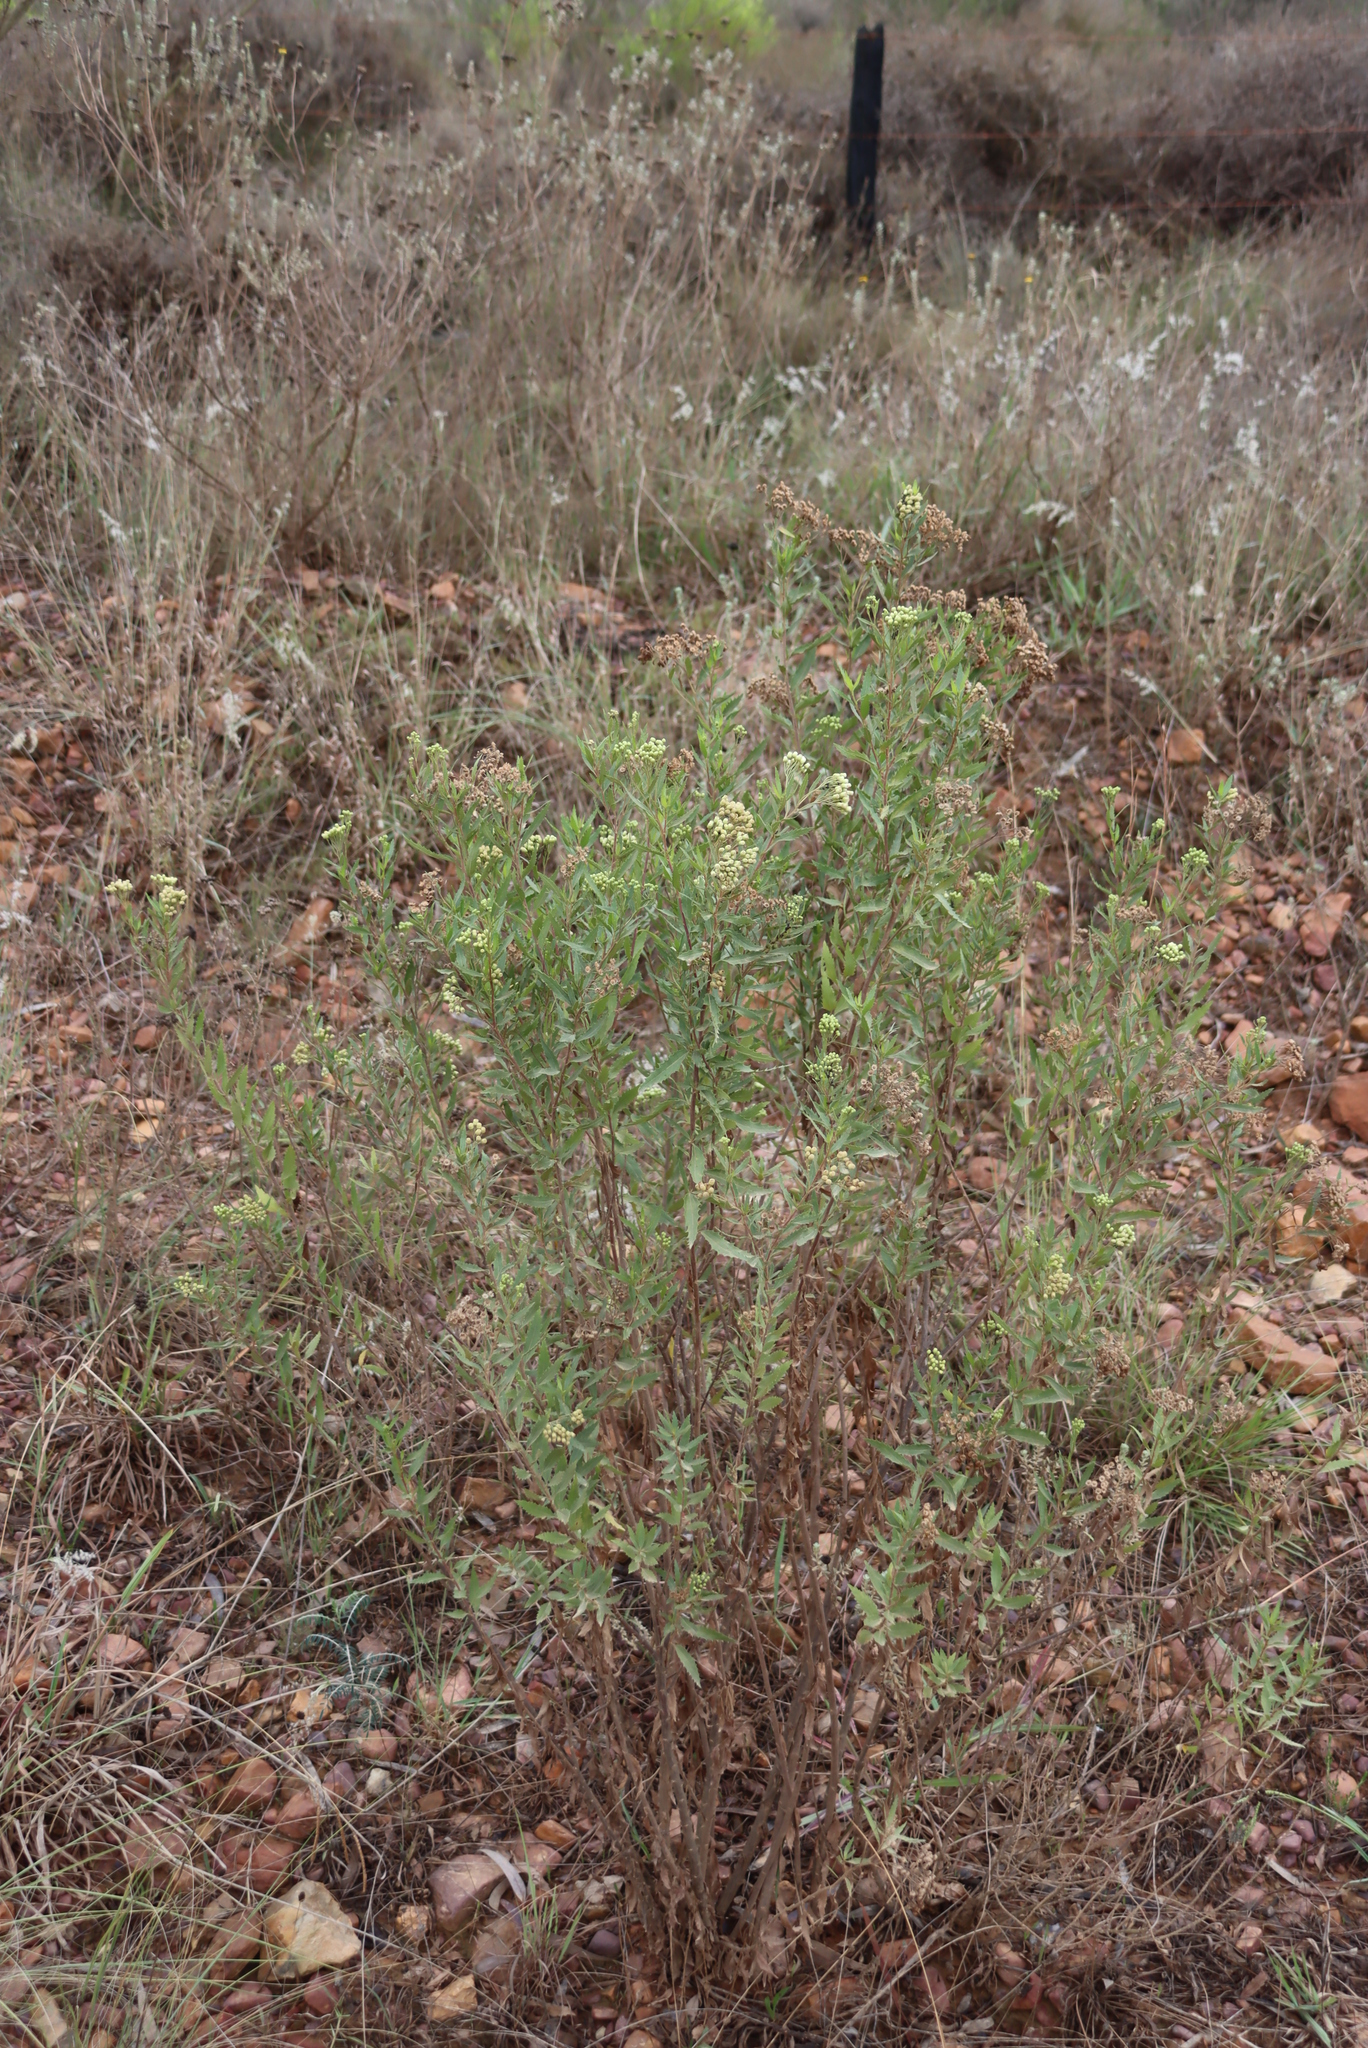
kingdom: Plantae
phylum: Tracheophyta
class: Magnoliopsida
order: Asterales
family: Asteraceae
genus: Nidorella
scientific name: Nidorella ivifolia
